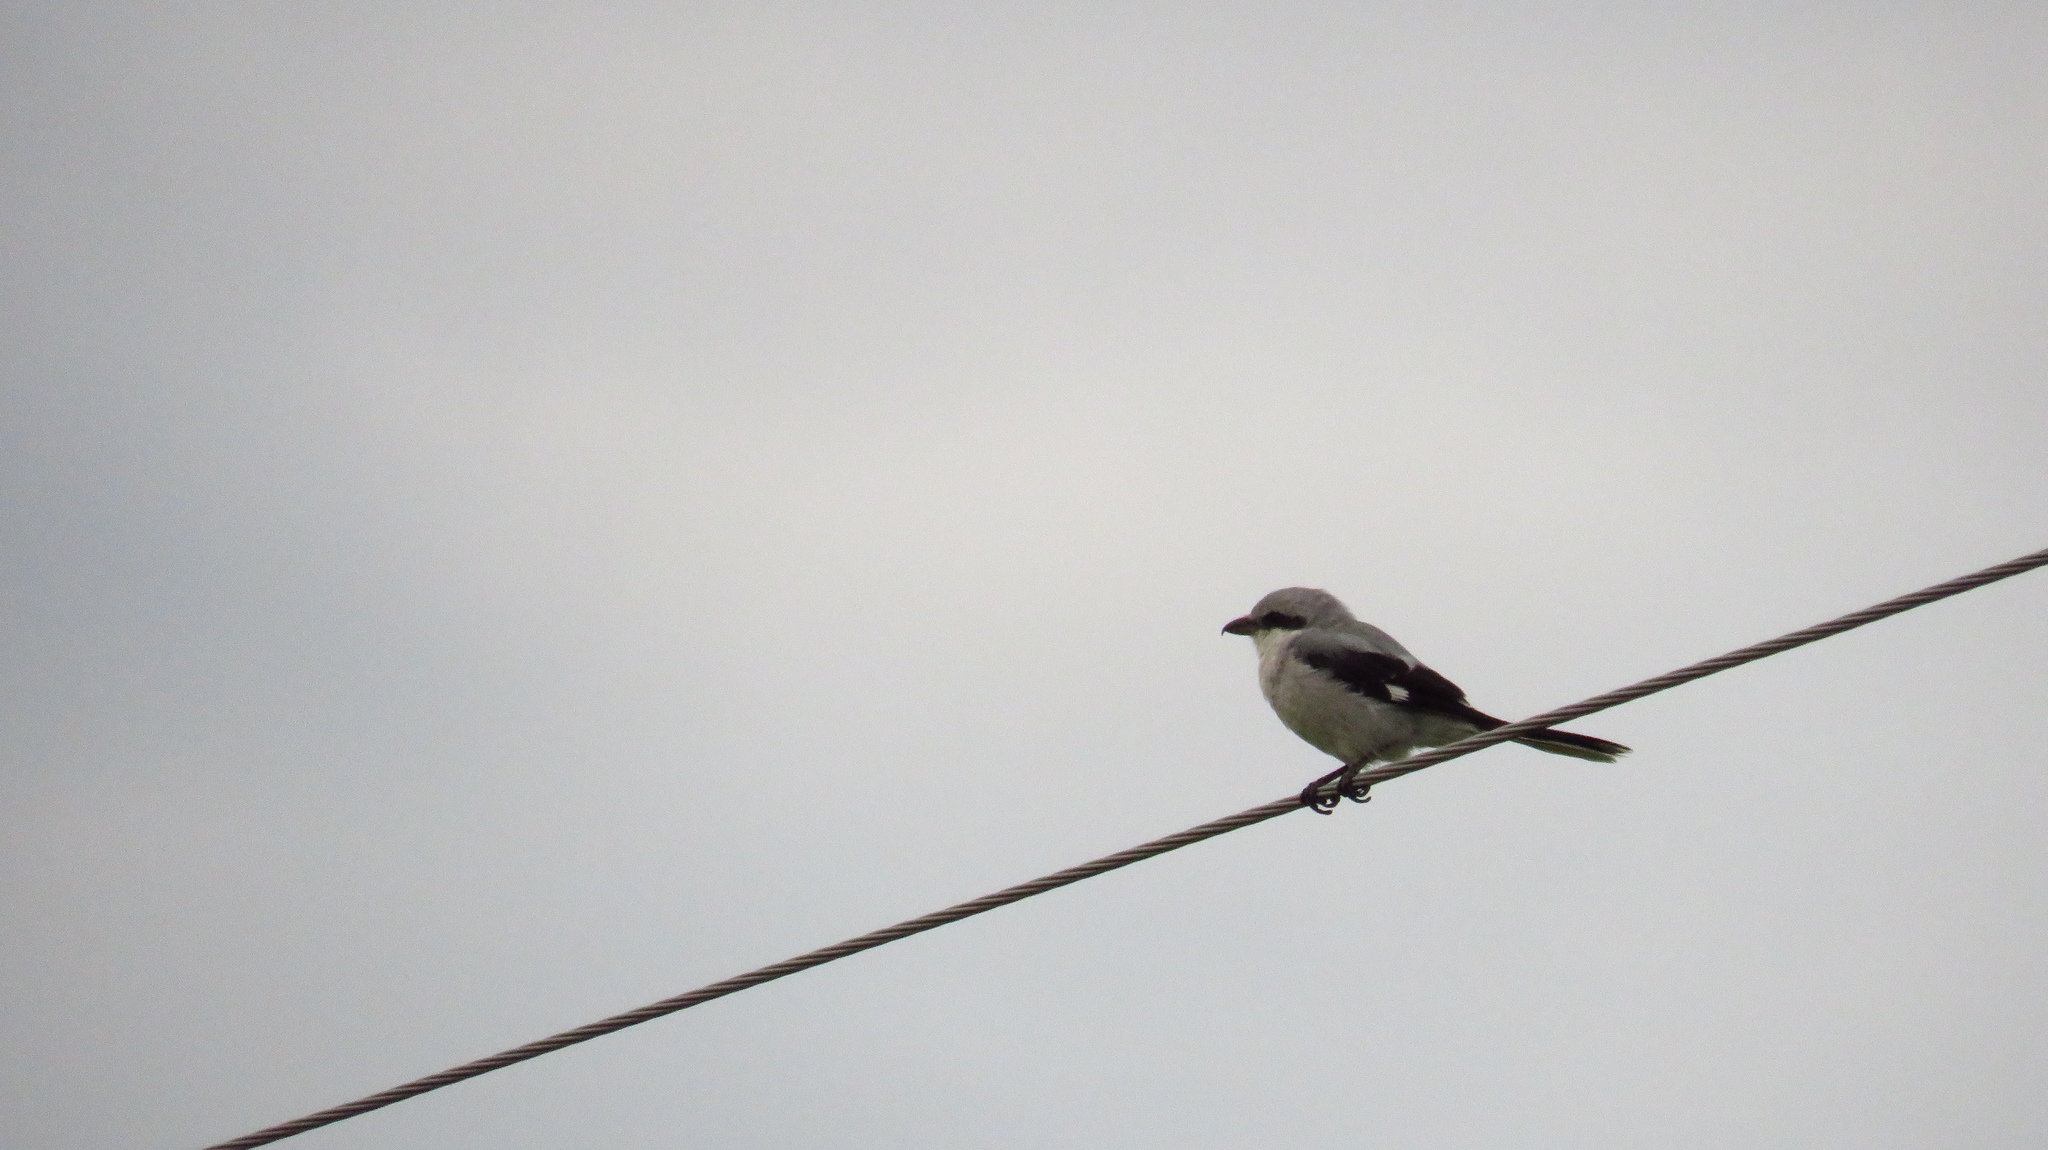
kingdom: Animalia
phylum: Chordata
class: Aves
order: Passeriformes
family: Laniidae
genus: Lanius
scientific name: Lanius excubitor
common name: Great grey shrike
